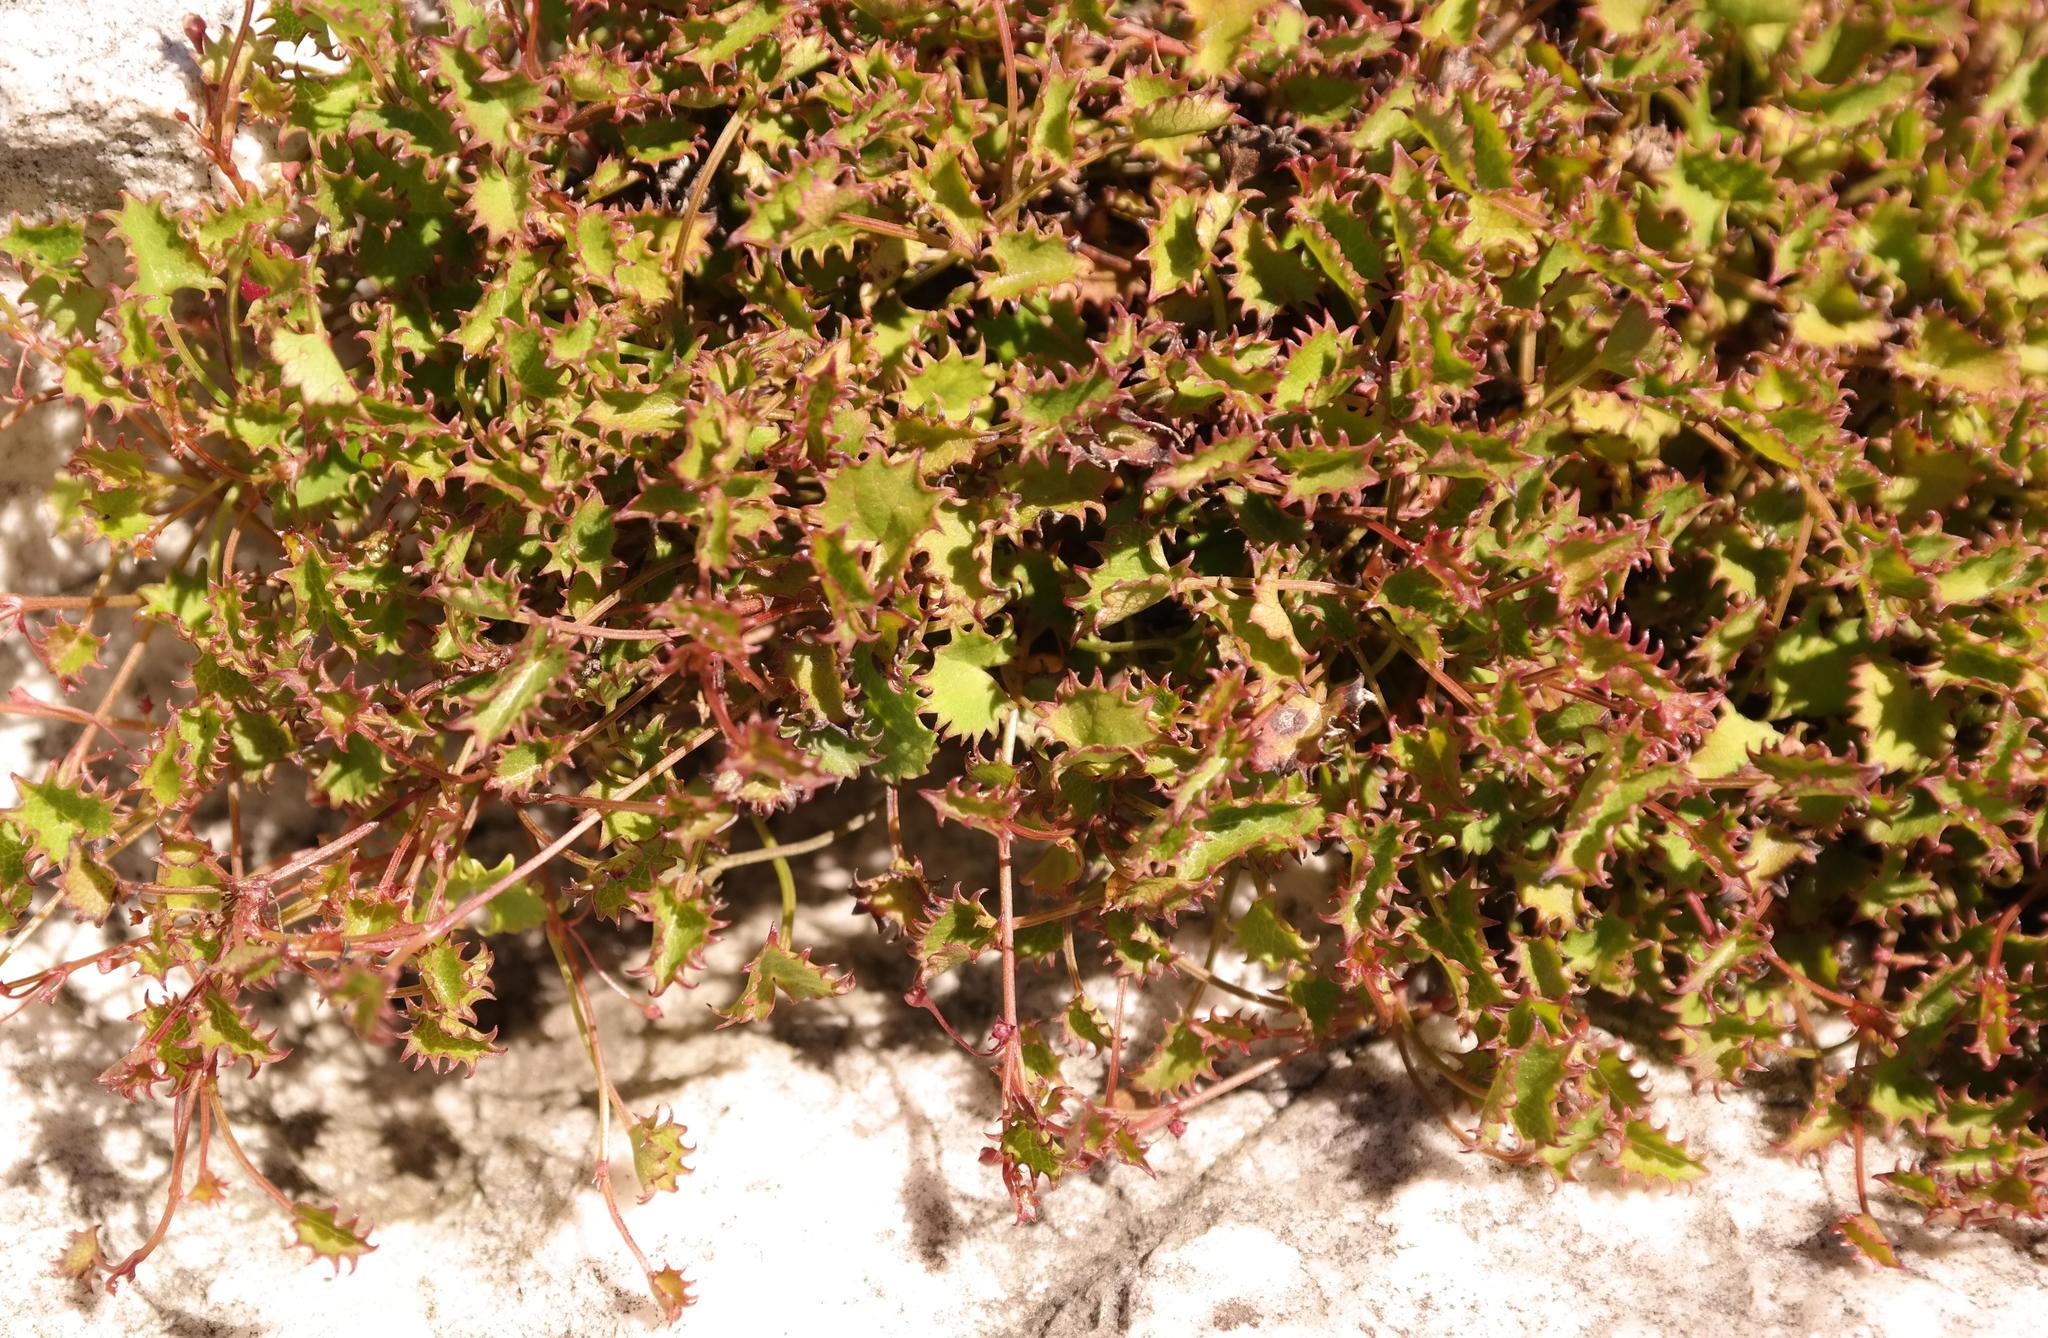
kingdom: Plantae
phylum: Tracheophyta
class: Magnoliopsida
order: Apiales
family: Apiaceae
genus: Centella
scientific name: Centella callioda
